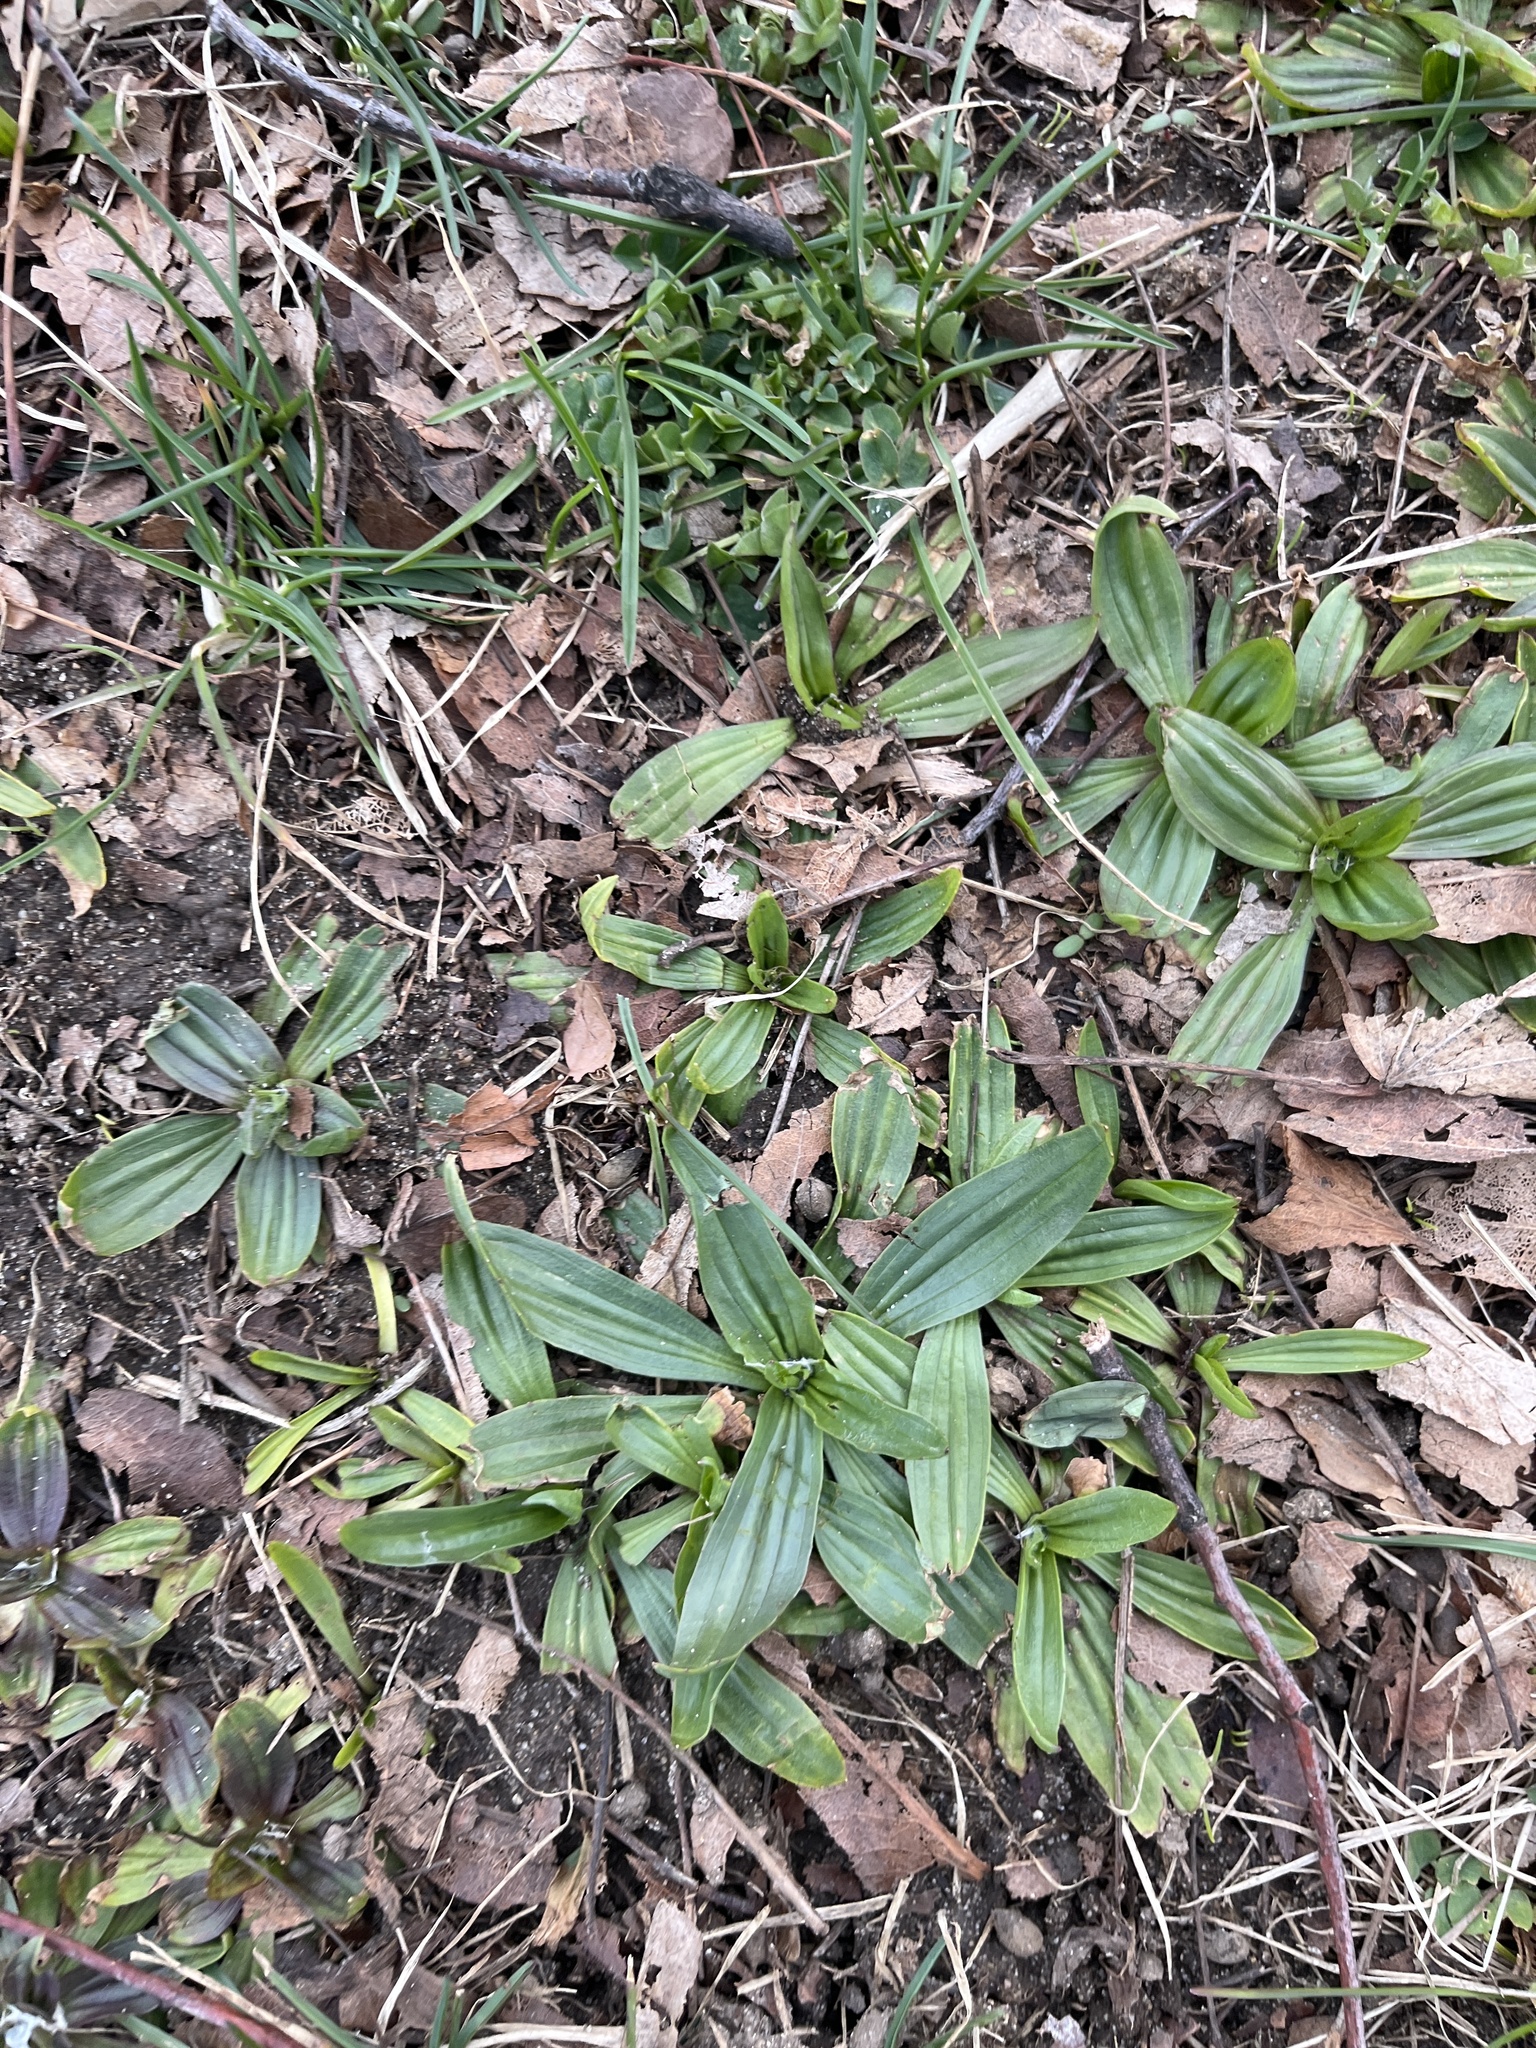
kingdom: Plantae
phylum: Tracheophyta
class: Magnoliopsida
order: Lamiales
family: Plantaginaceae
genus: Plantago
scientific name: Plantago lanceolata
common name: Ribwort plantain
